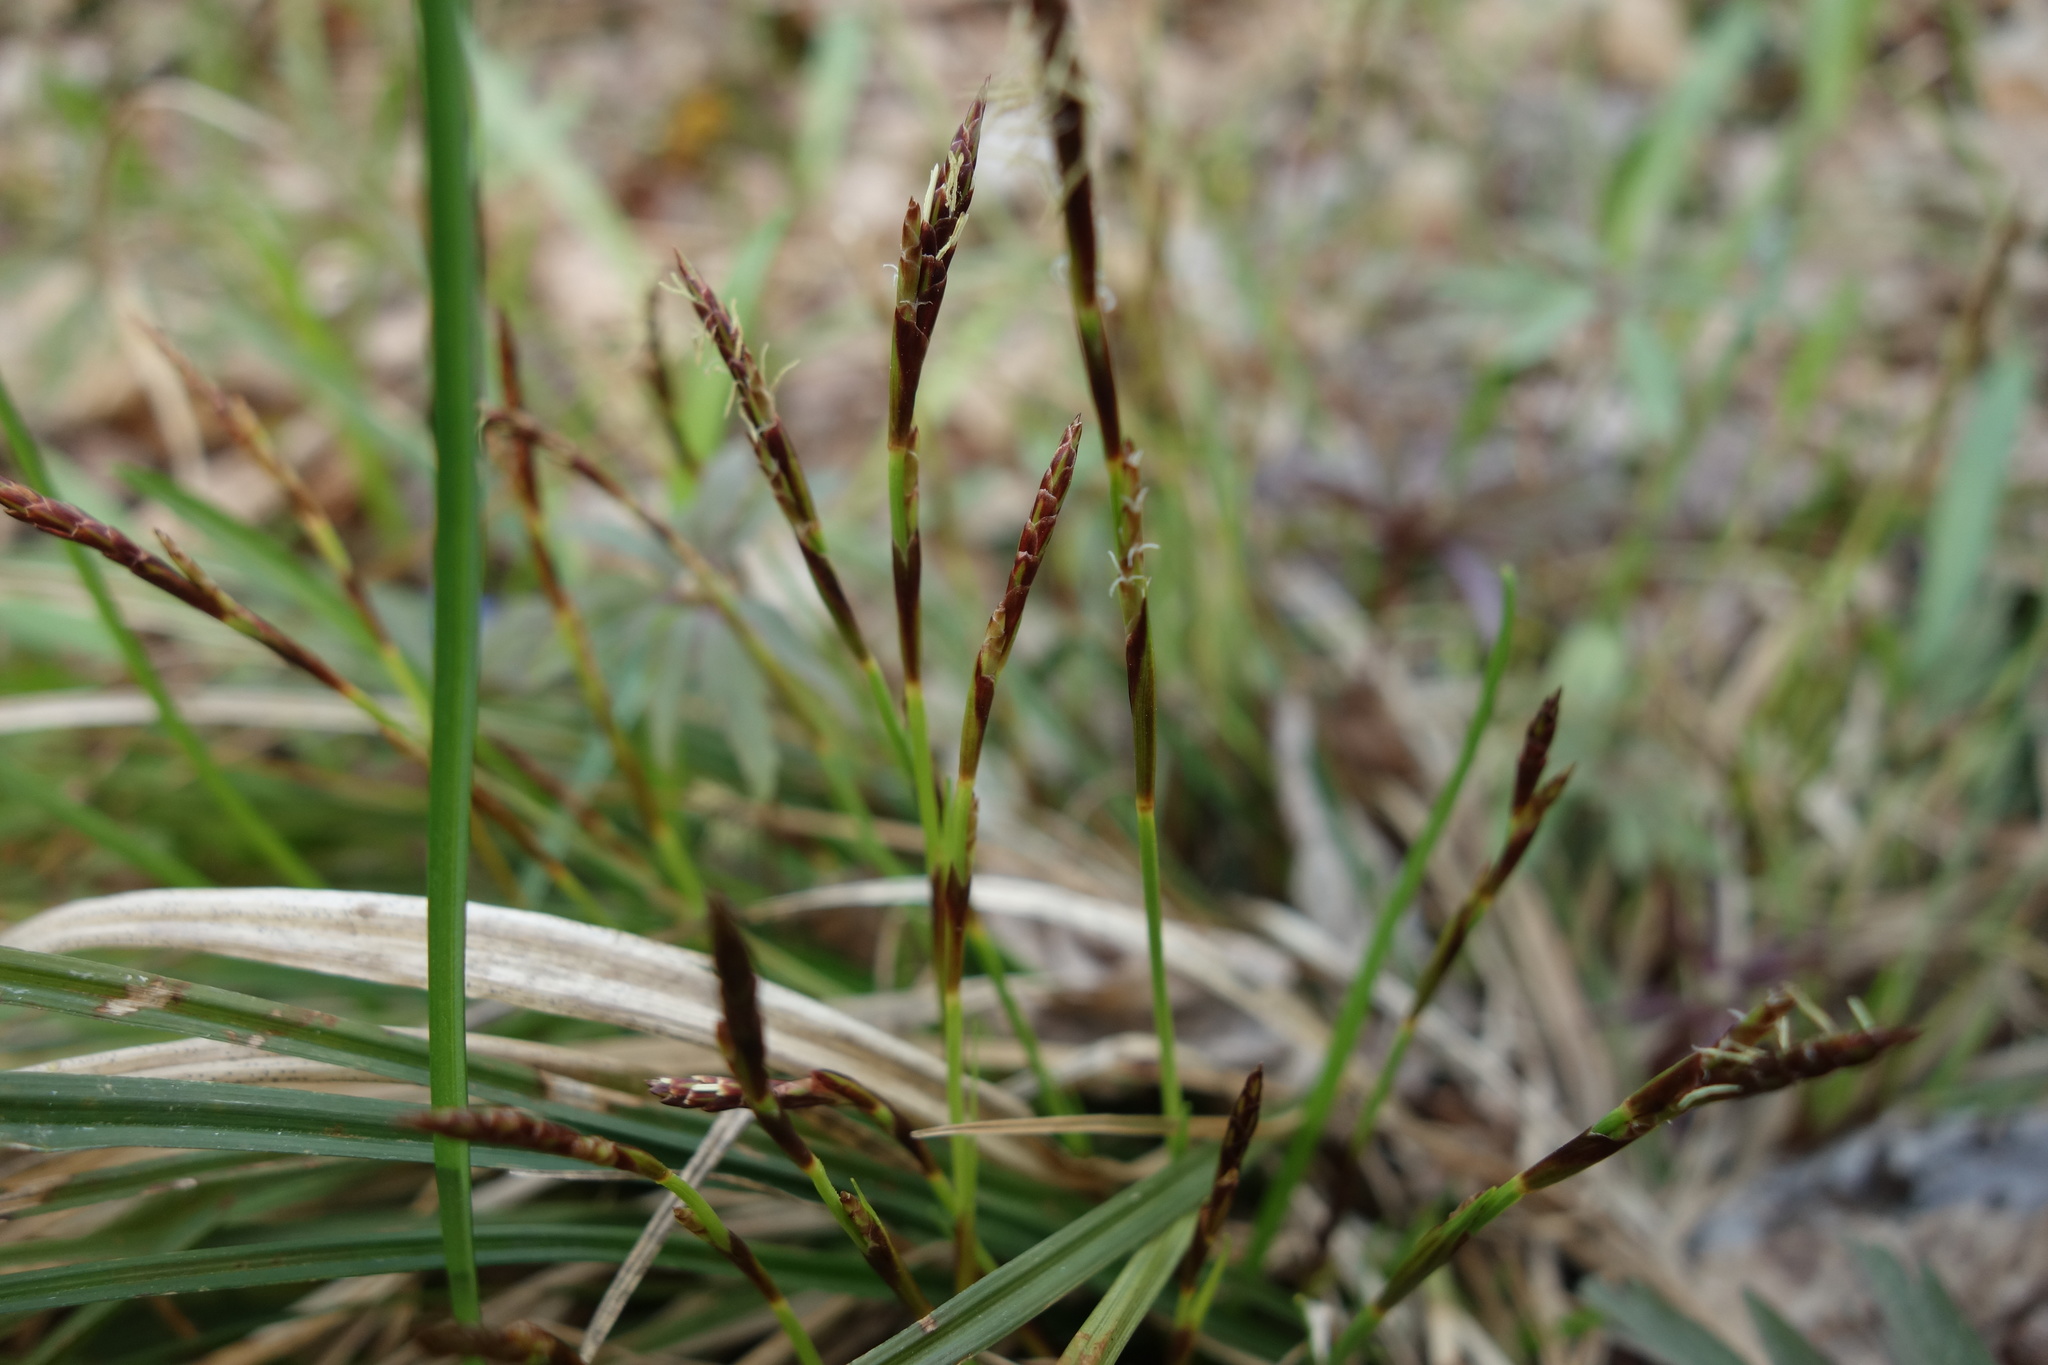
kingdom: Plantae
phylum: Tracheophyta
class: Liliopsida
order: Poales
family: Cyperaceae
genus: Carex
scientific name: Carex digitata
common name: Fingered sedge
